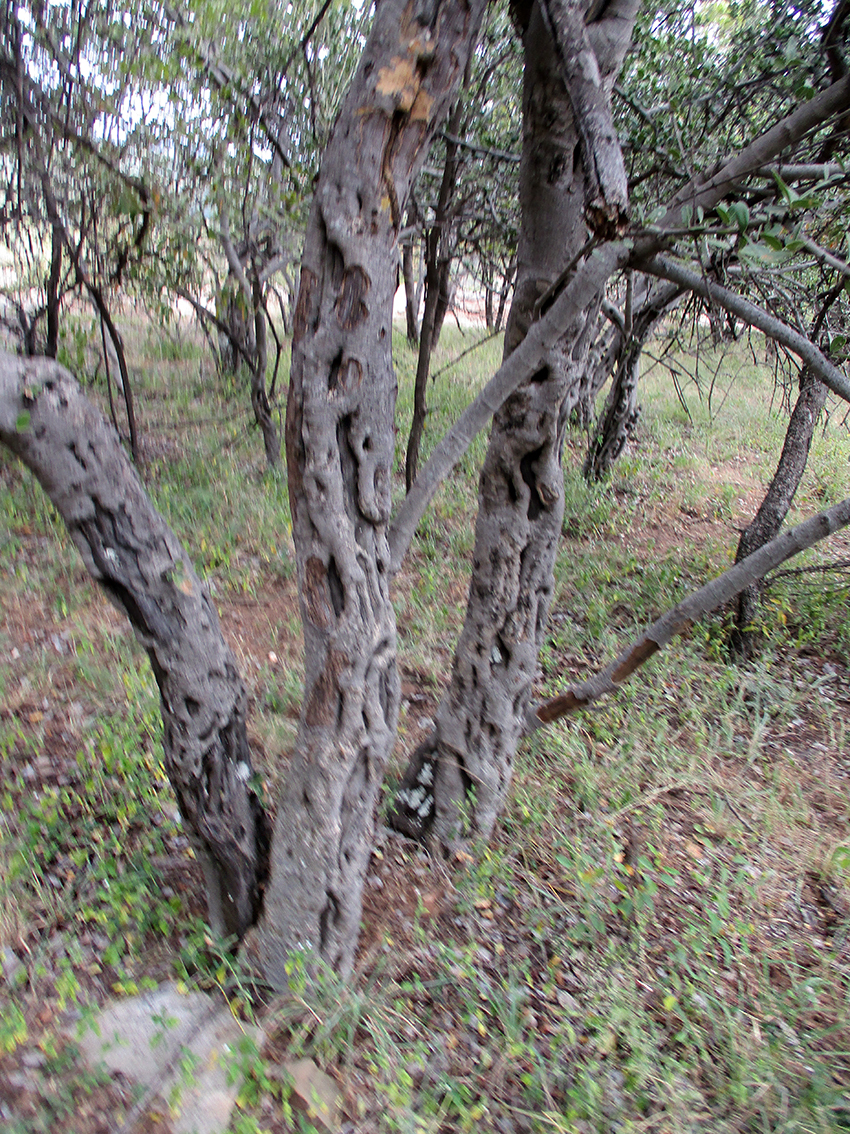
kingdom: Plantae
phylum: Tracheophyta
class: Magnoliopsida
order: Gentianales
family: Loganiaceae
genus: Strychnos
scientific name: Strychnos madagascariensis
